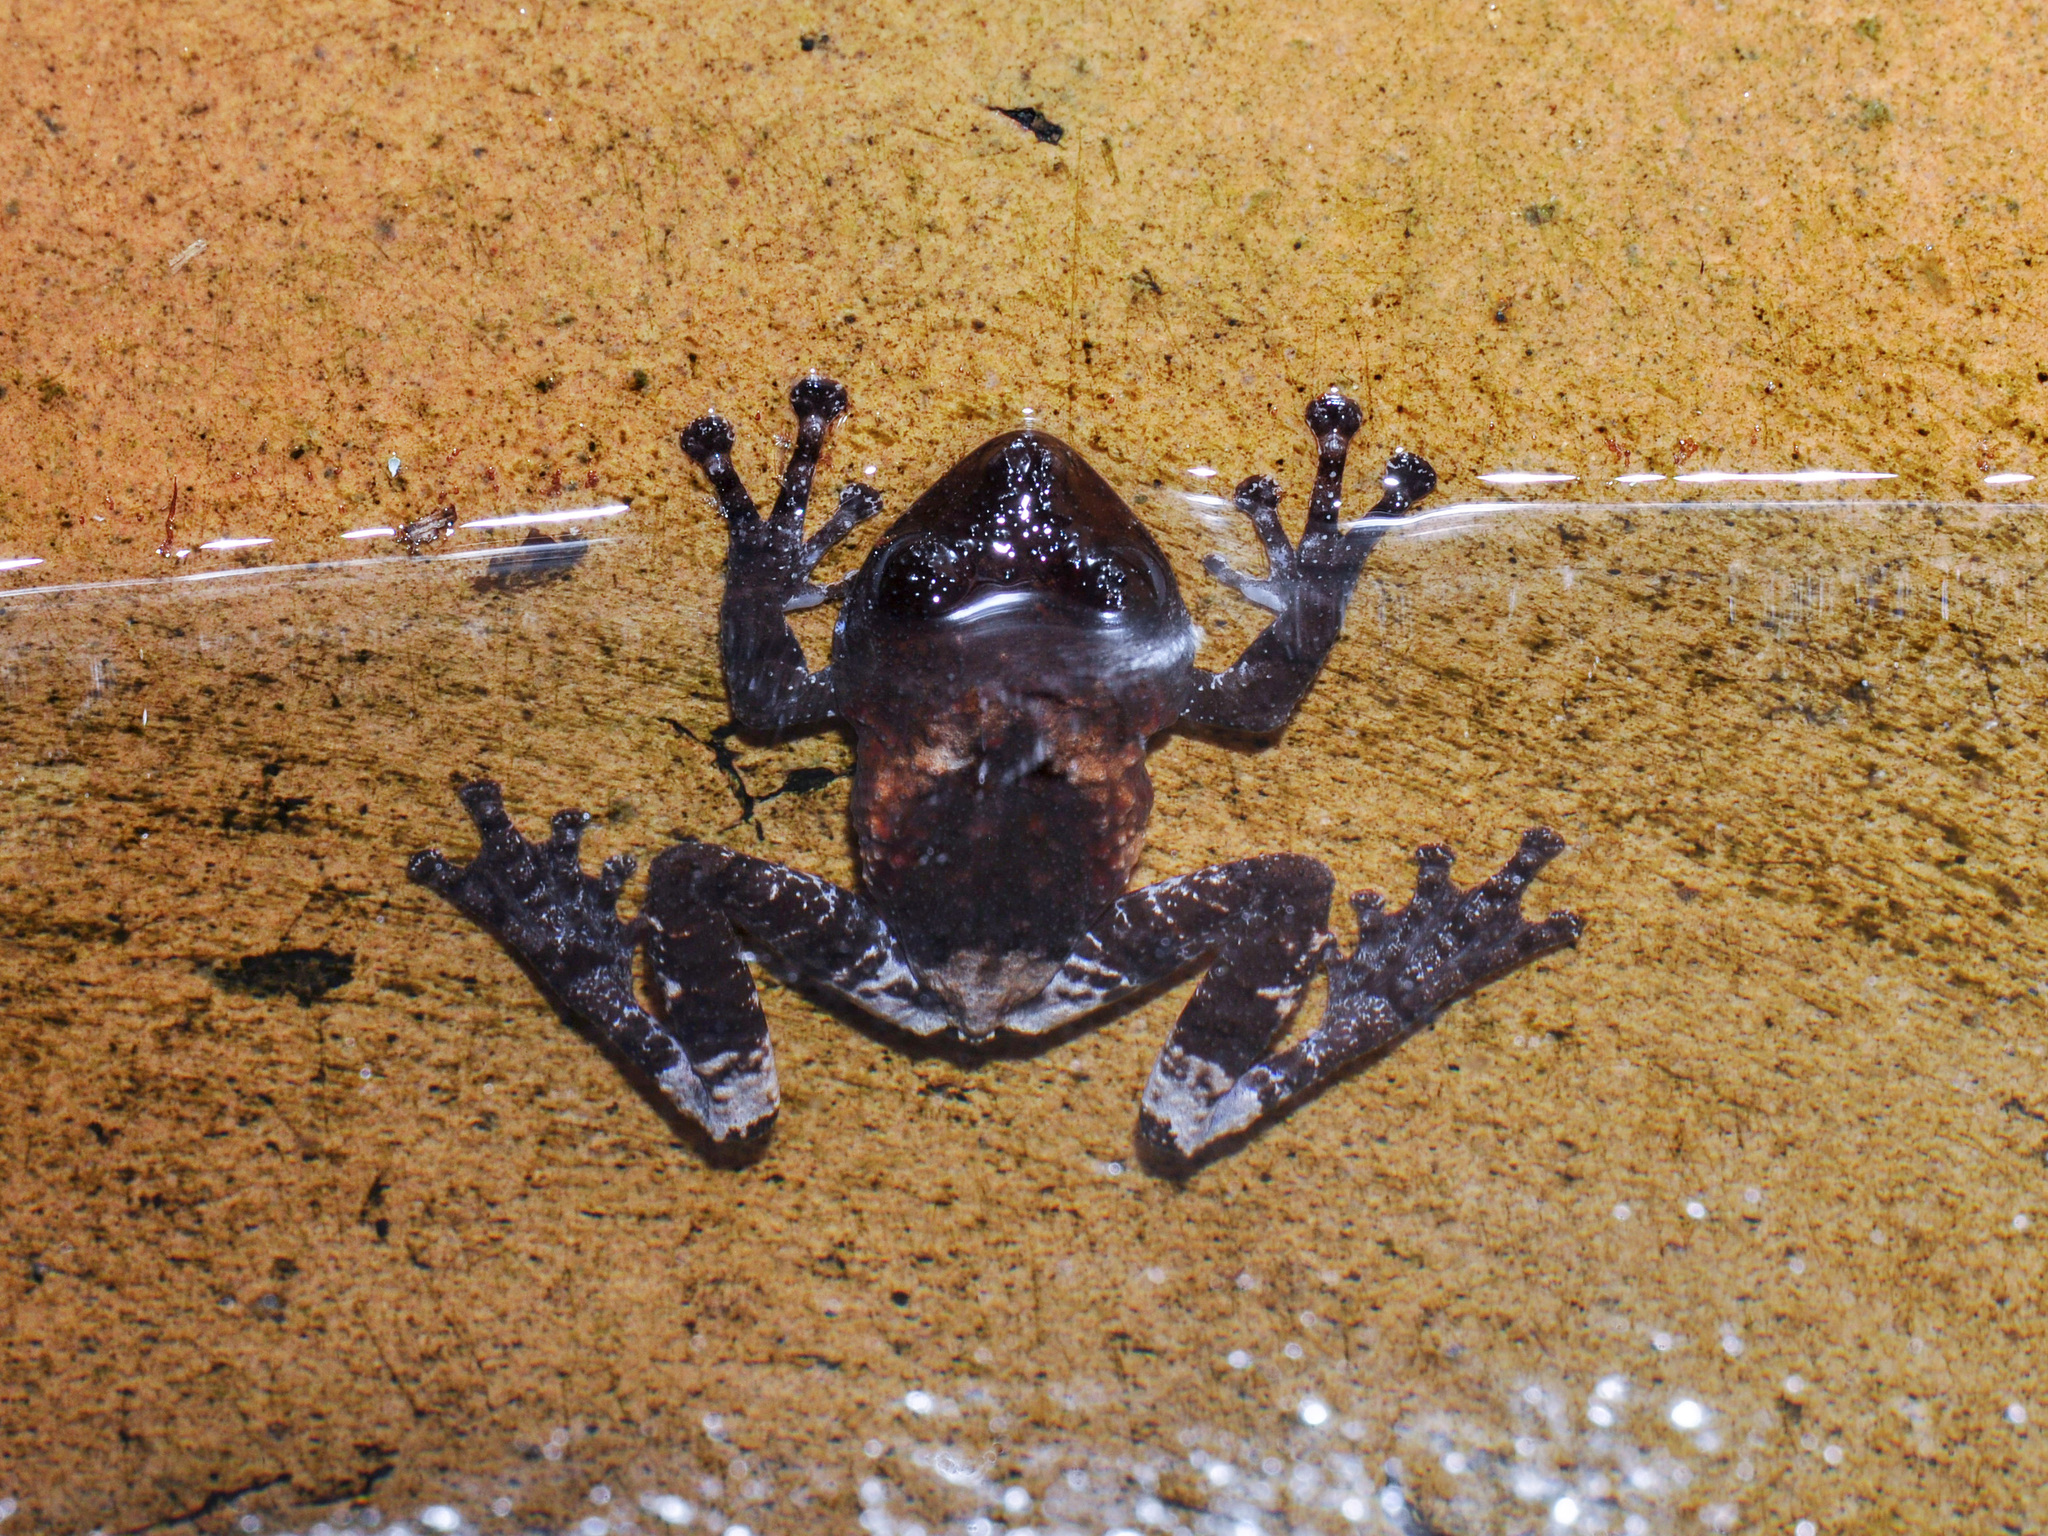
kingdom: Animalia
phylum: Chordata
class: Amphibia
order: Anura
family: Rhacophoridae
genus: Theloderma
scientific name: Theloderma asperum
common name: Pied wart frog
